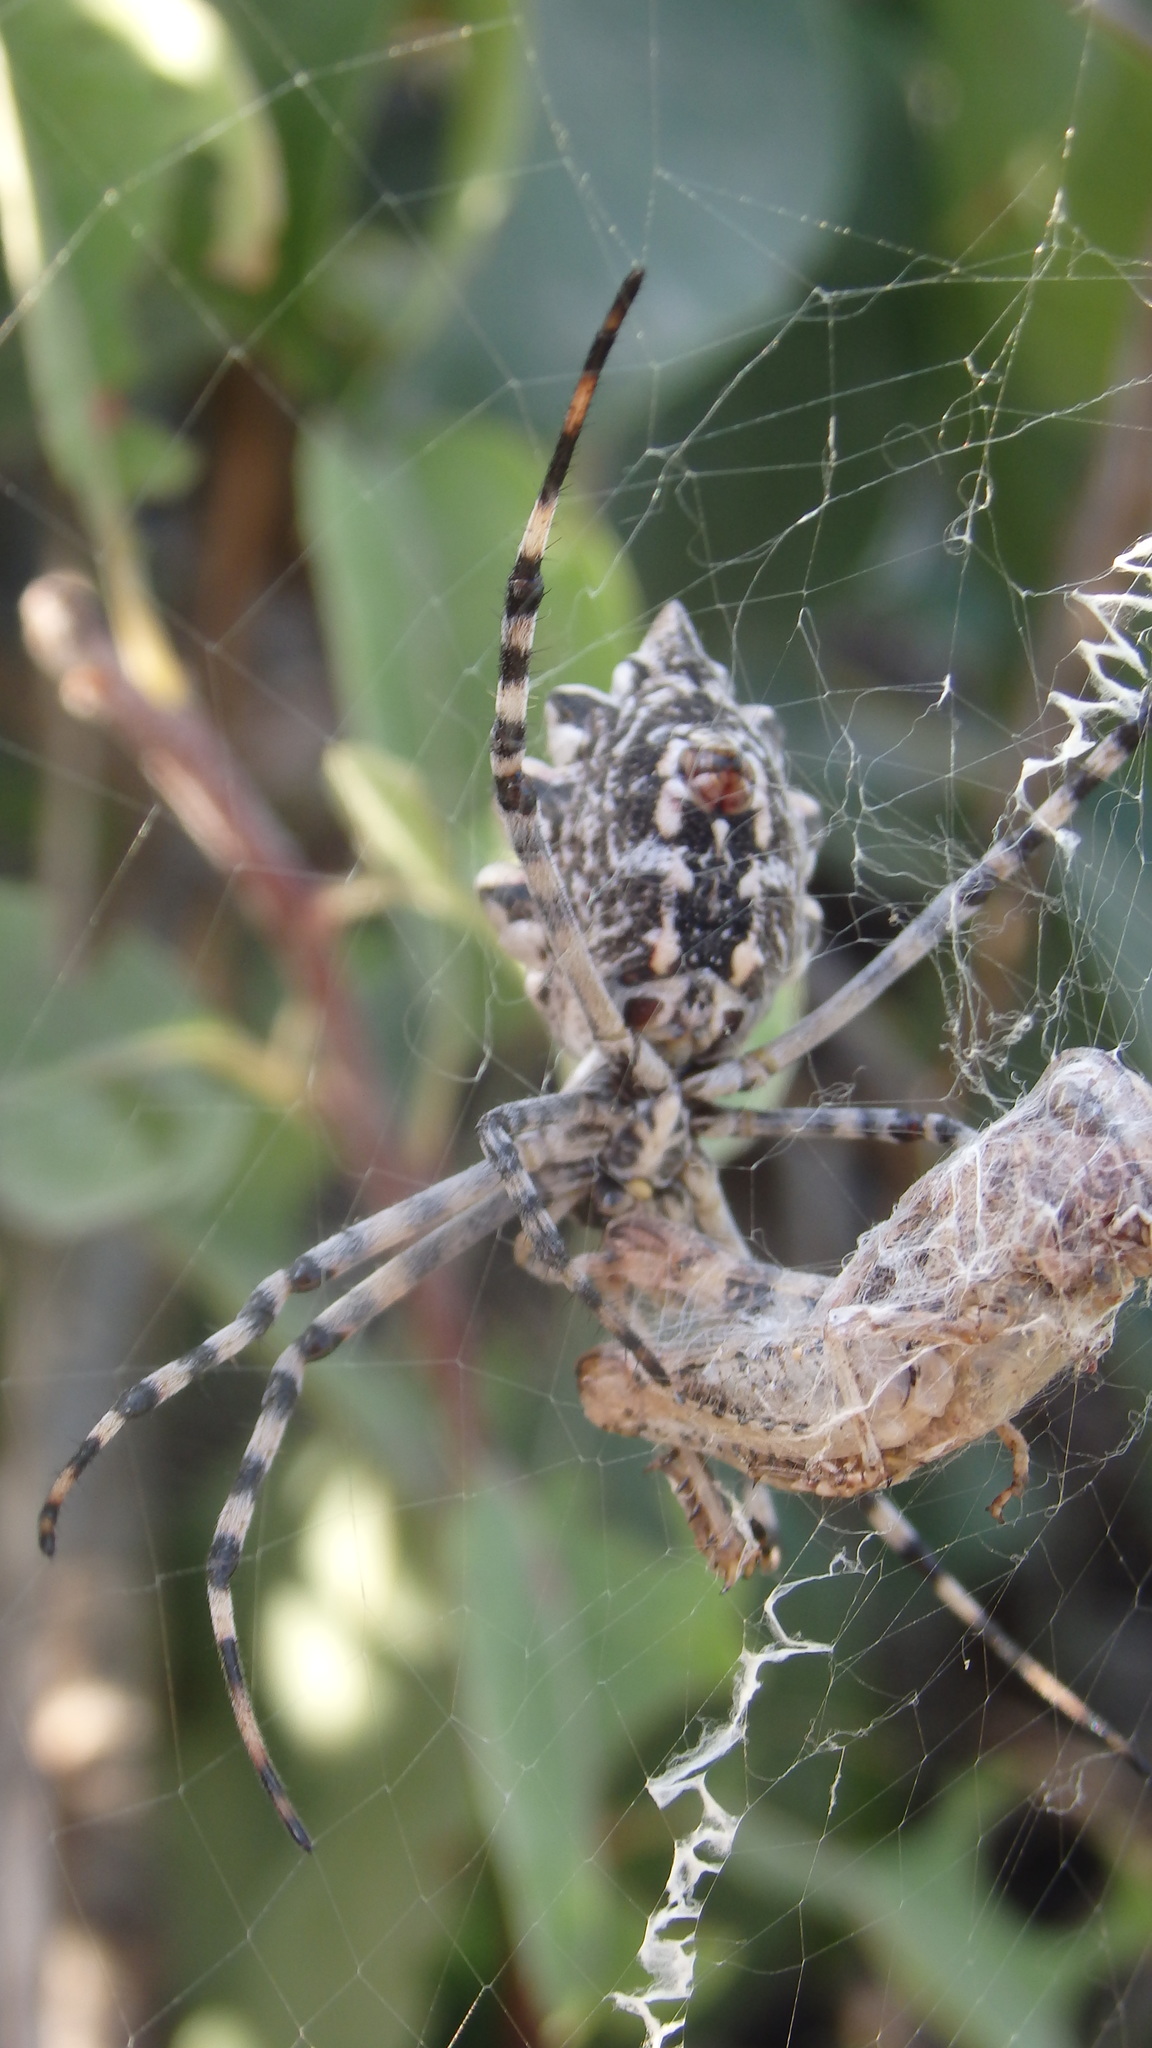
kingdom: Animalia
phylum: Arthropoda
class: Arachnida
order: Araneae
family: Araneidae
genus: Argiope
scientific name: Argiope lobata
